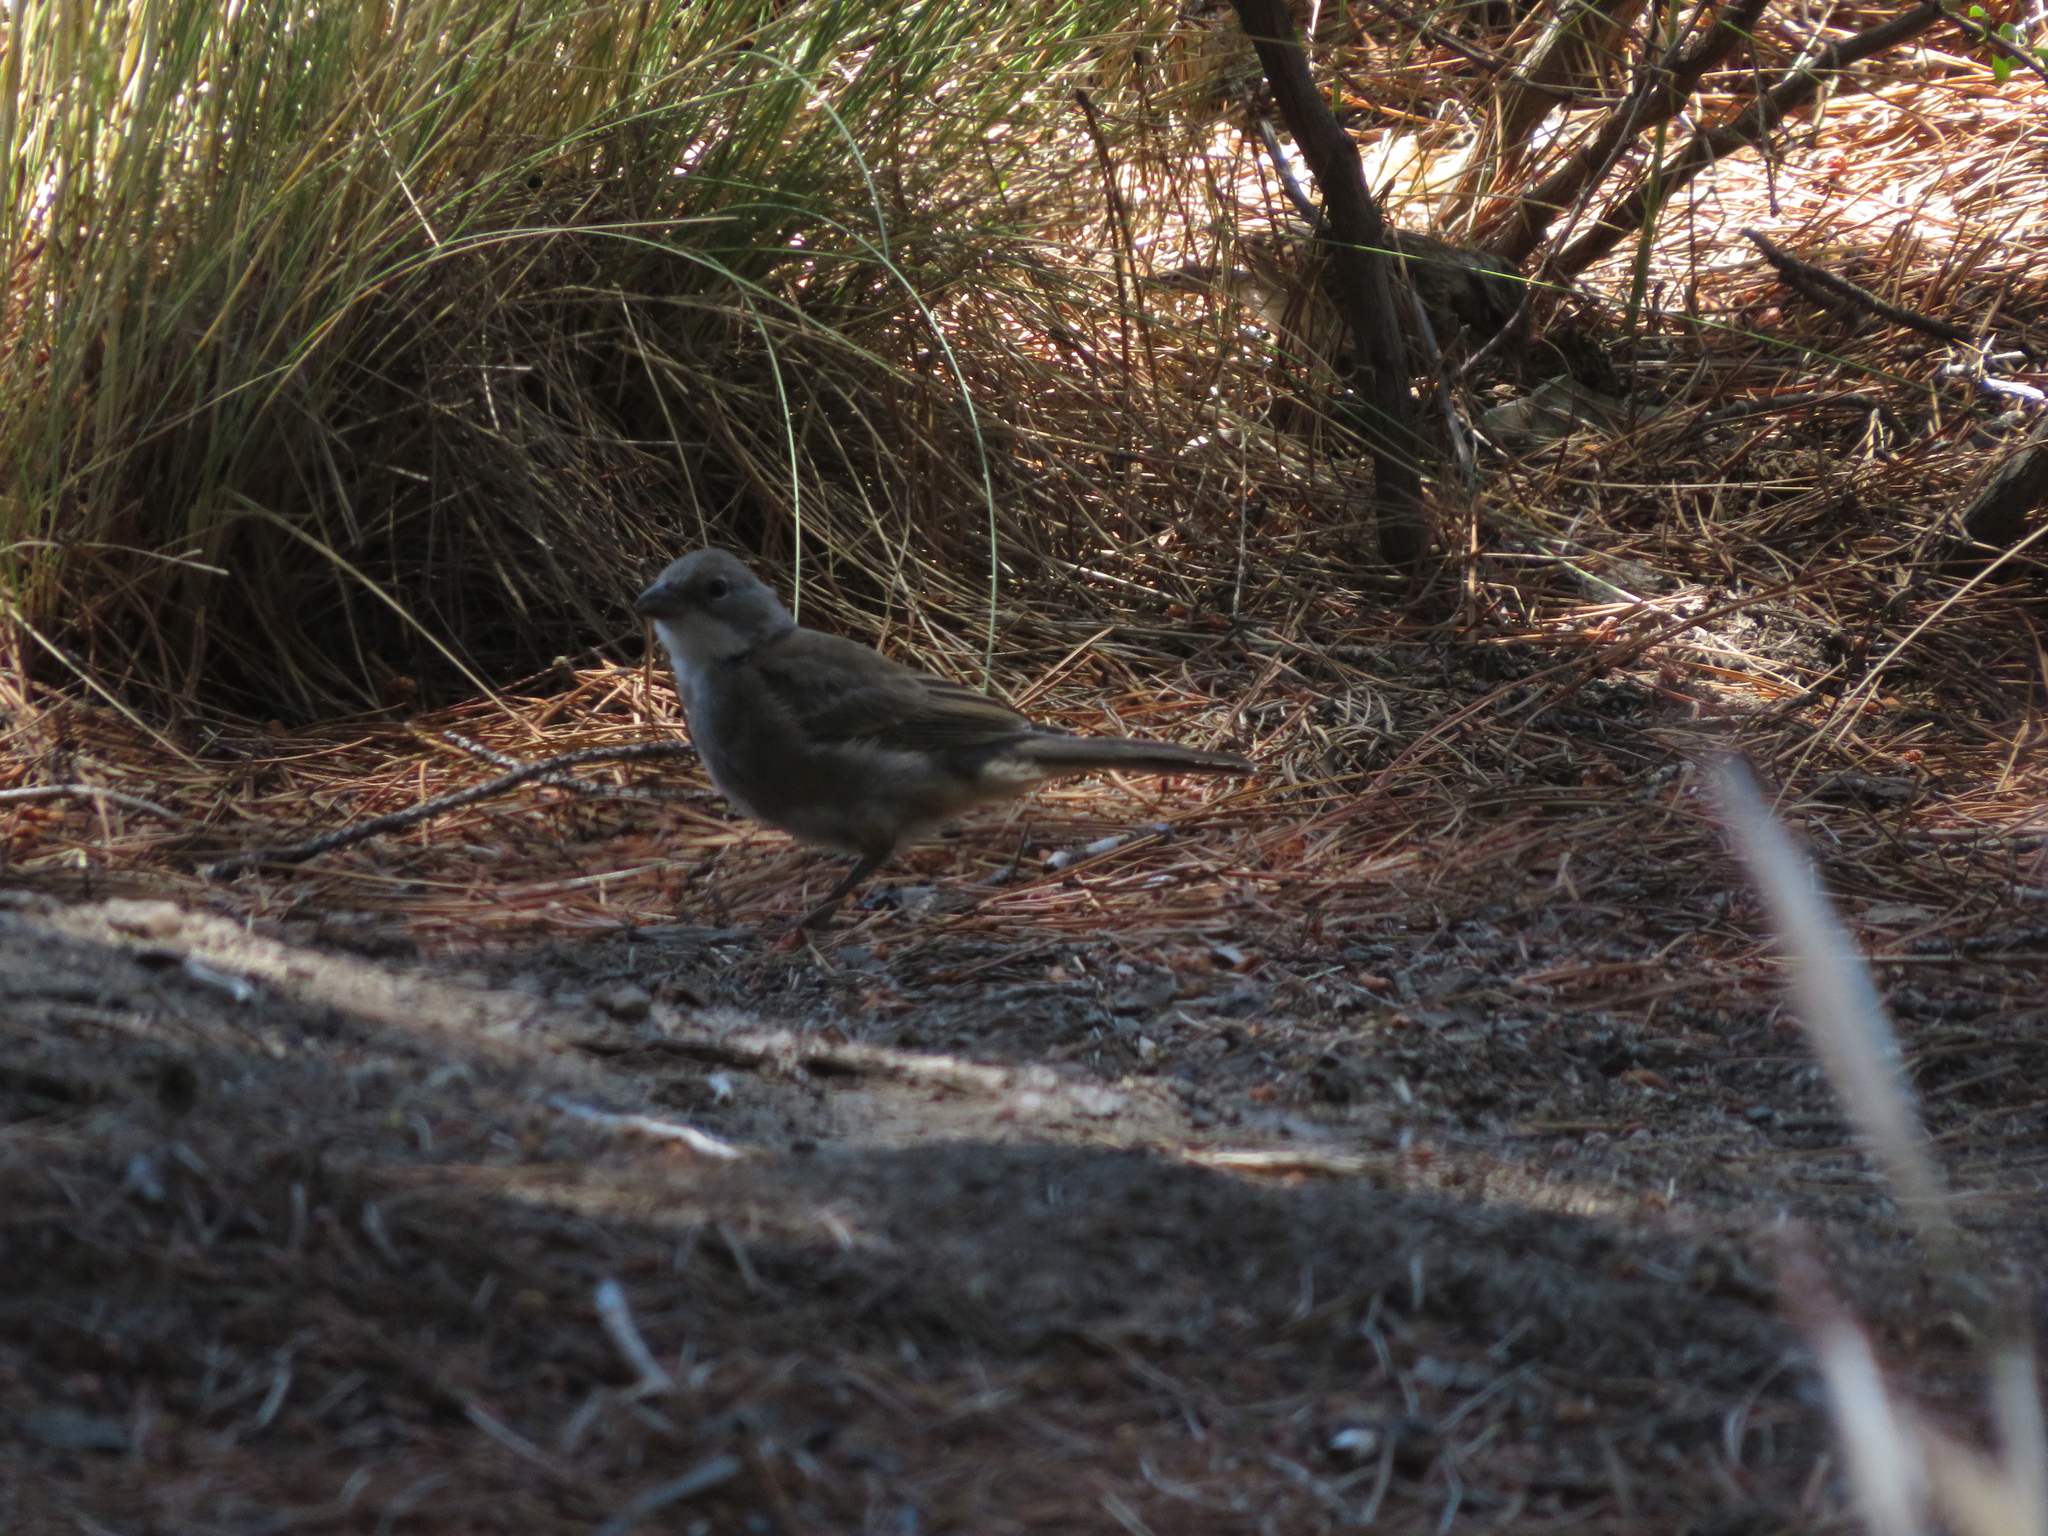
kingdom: Animalia
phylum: Chordata
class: Aves
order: Passeriformes
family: Thraupidae
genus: Diuca
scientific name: Diuca diuca
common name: Common diuca finch
